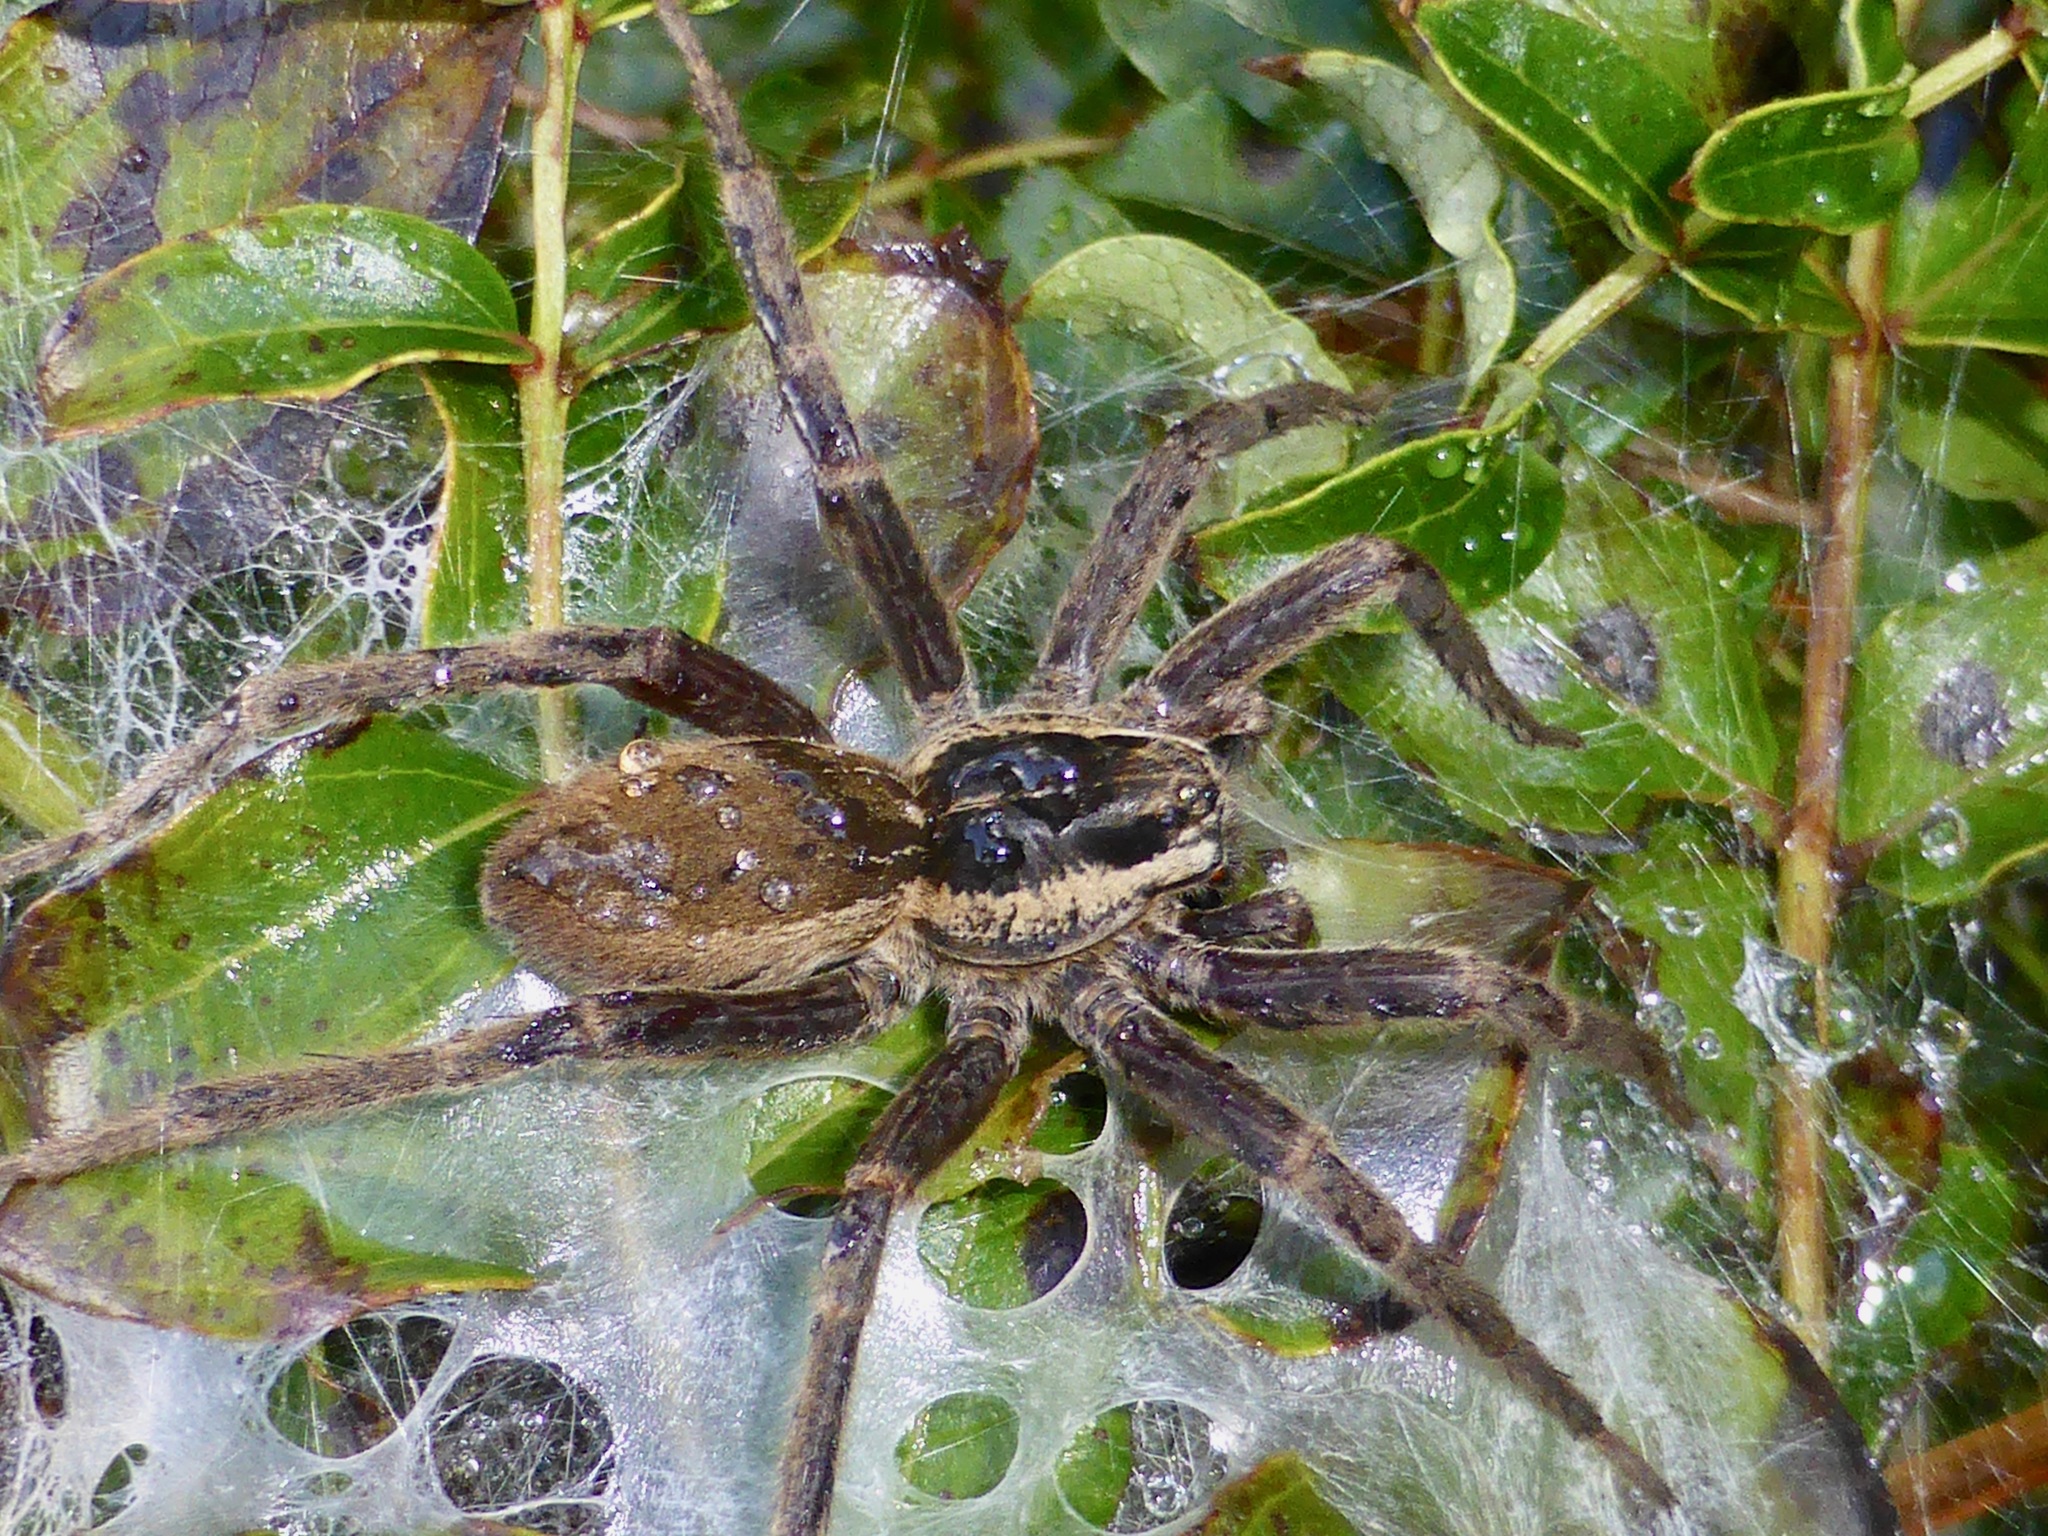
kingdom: Animalia
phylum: Arthropoda
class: Arachnida
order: Araneae
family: Pisauridae
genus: Dolomedes
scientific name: Dolomedes minor
